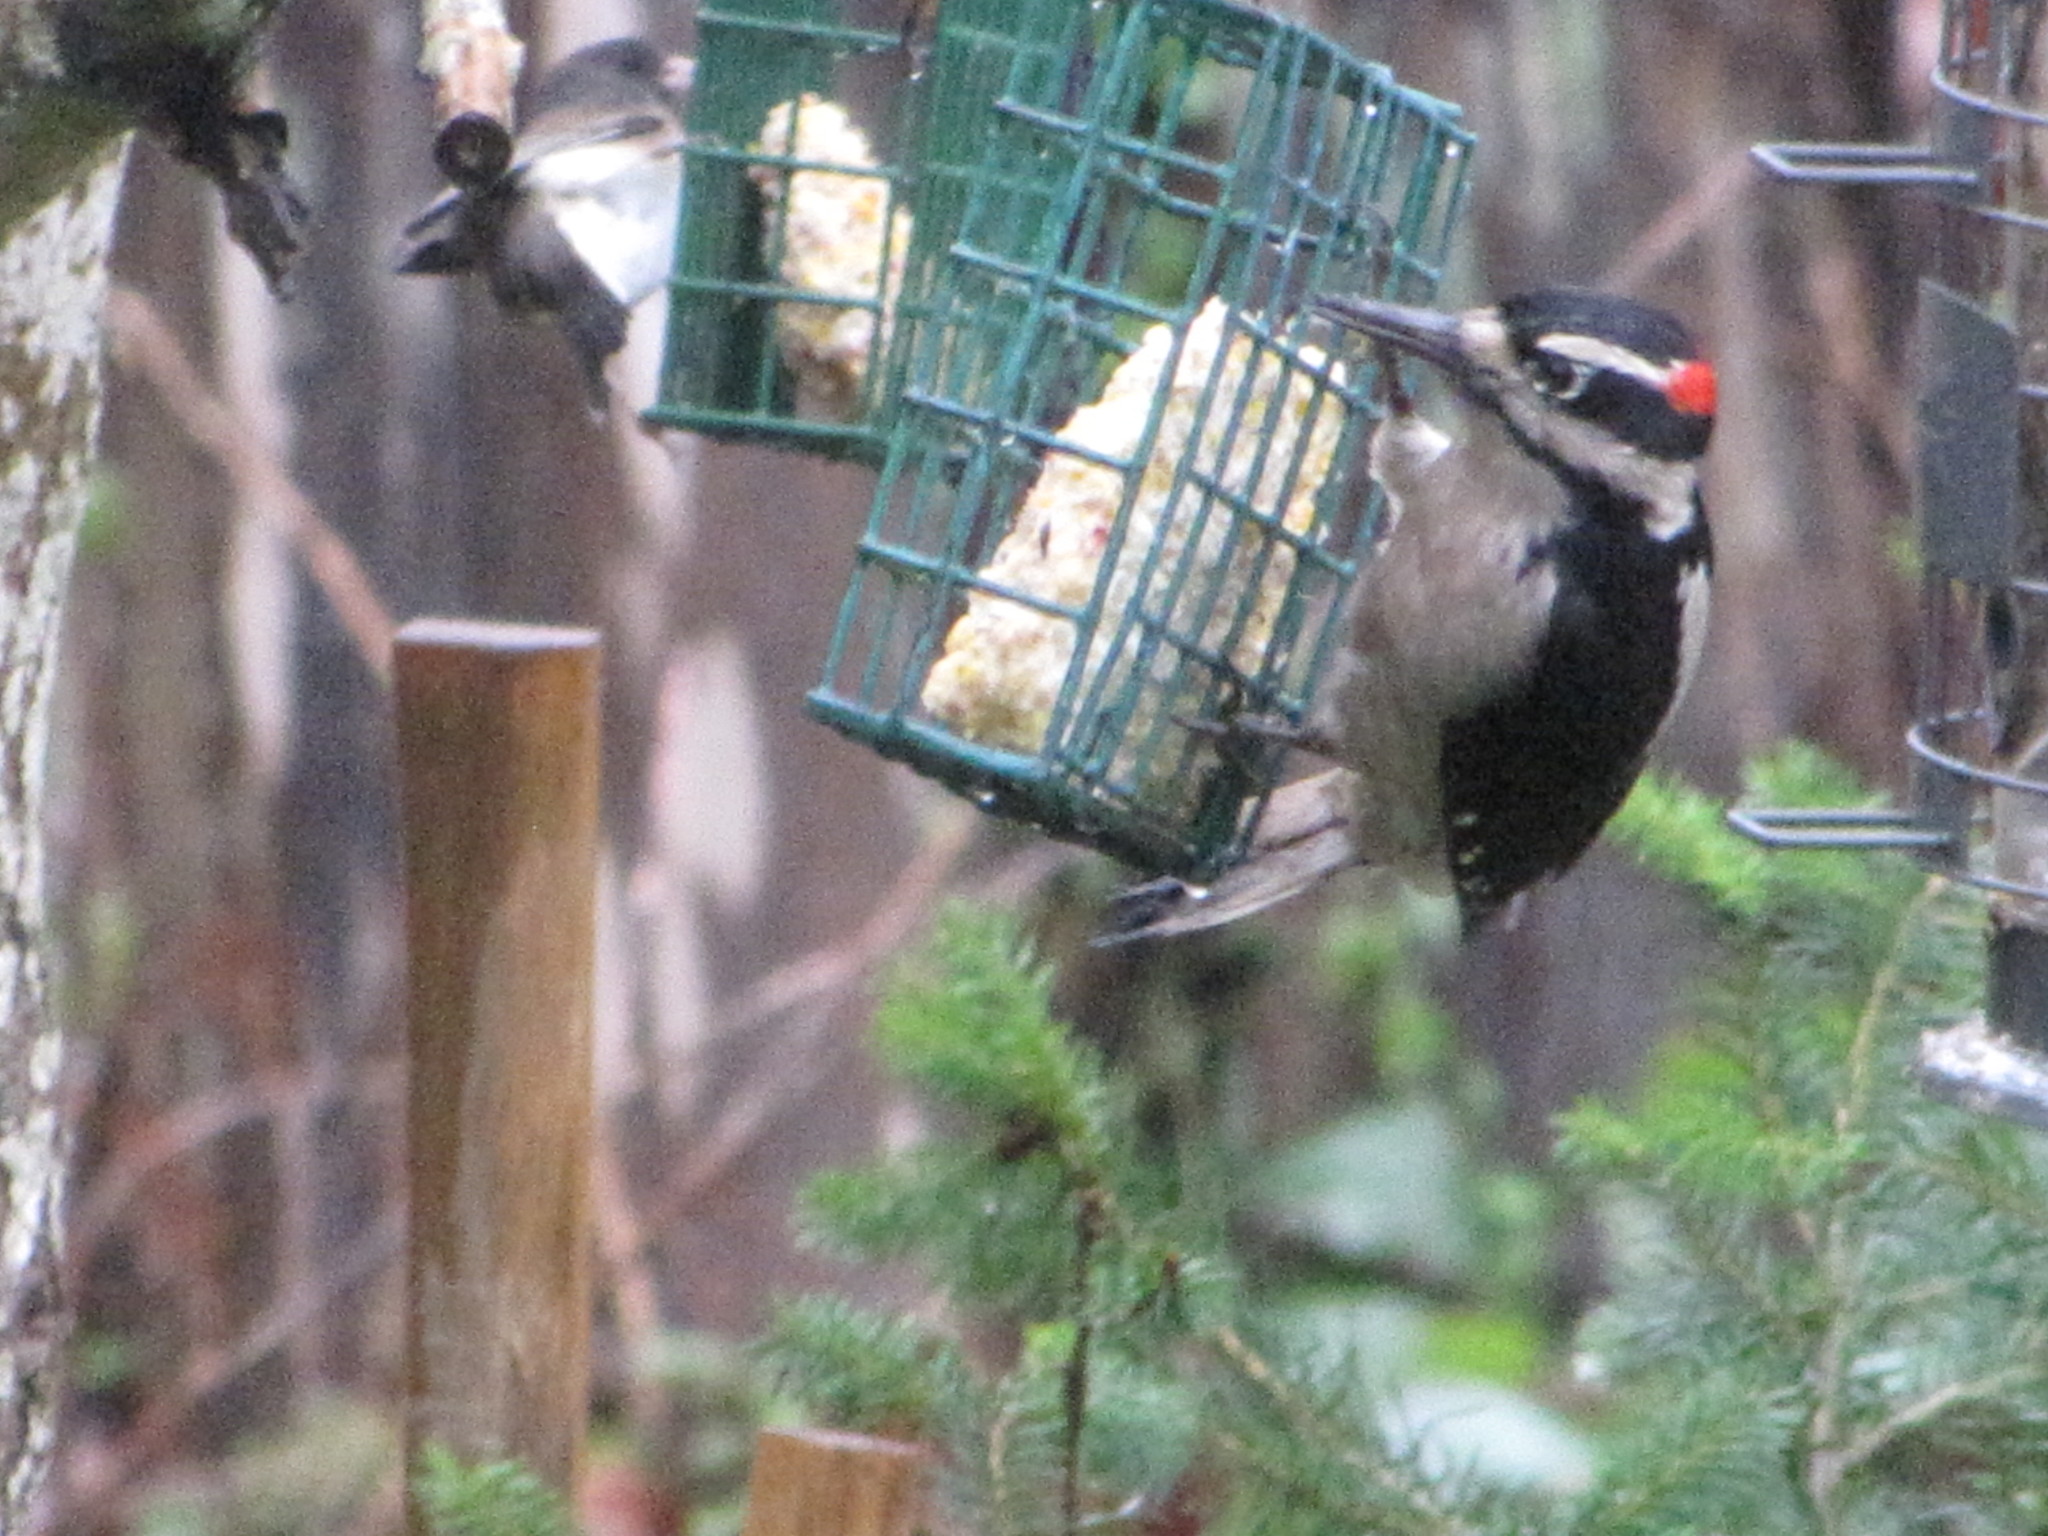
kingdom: Animalia
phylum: Chordata
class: Aves
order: Piciformes
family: Picidae
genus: Leuconotopicus
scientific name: Leuconotopicus villosus
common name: Hairy woodpecker
